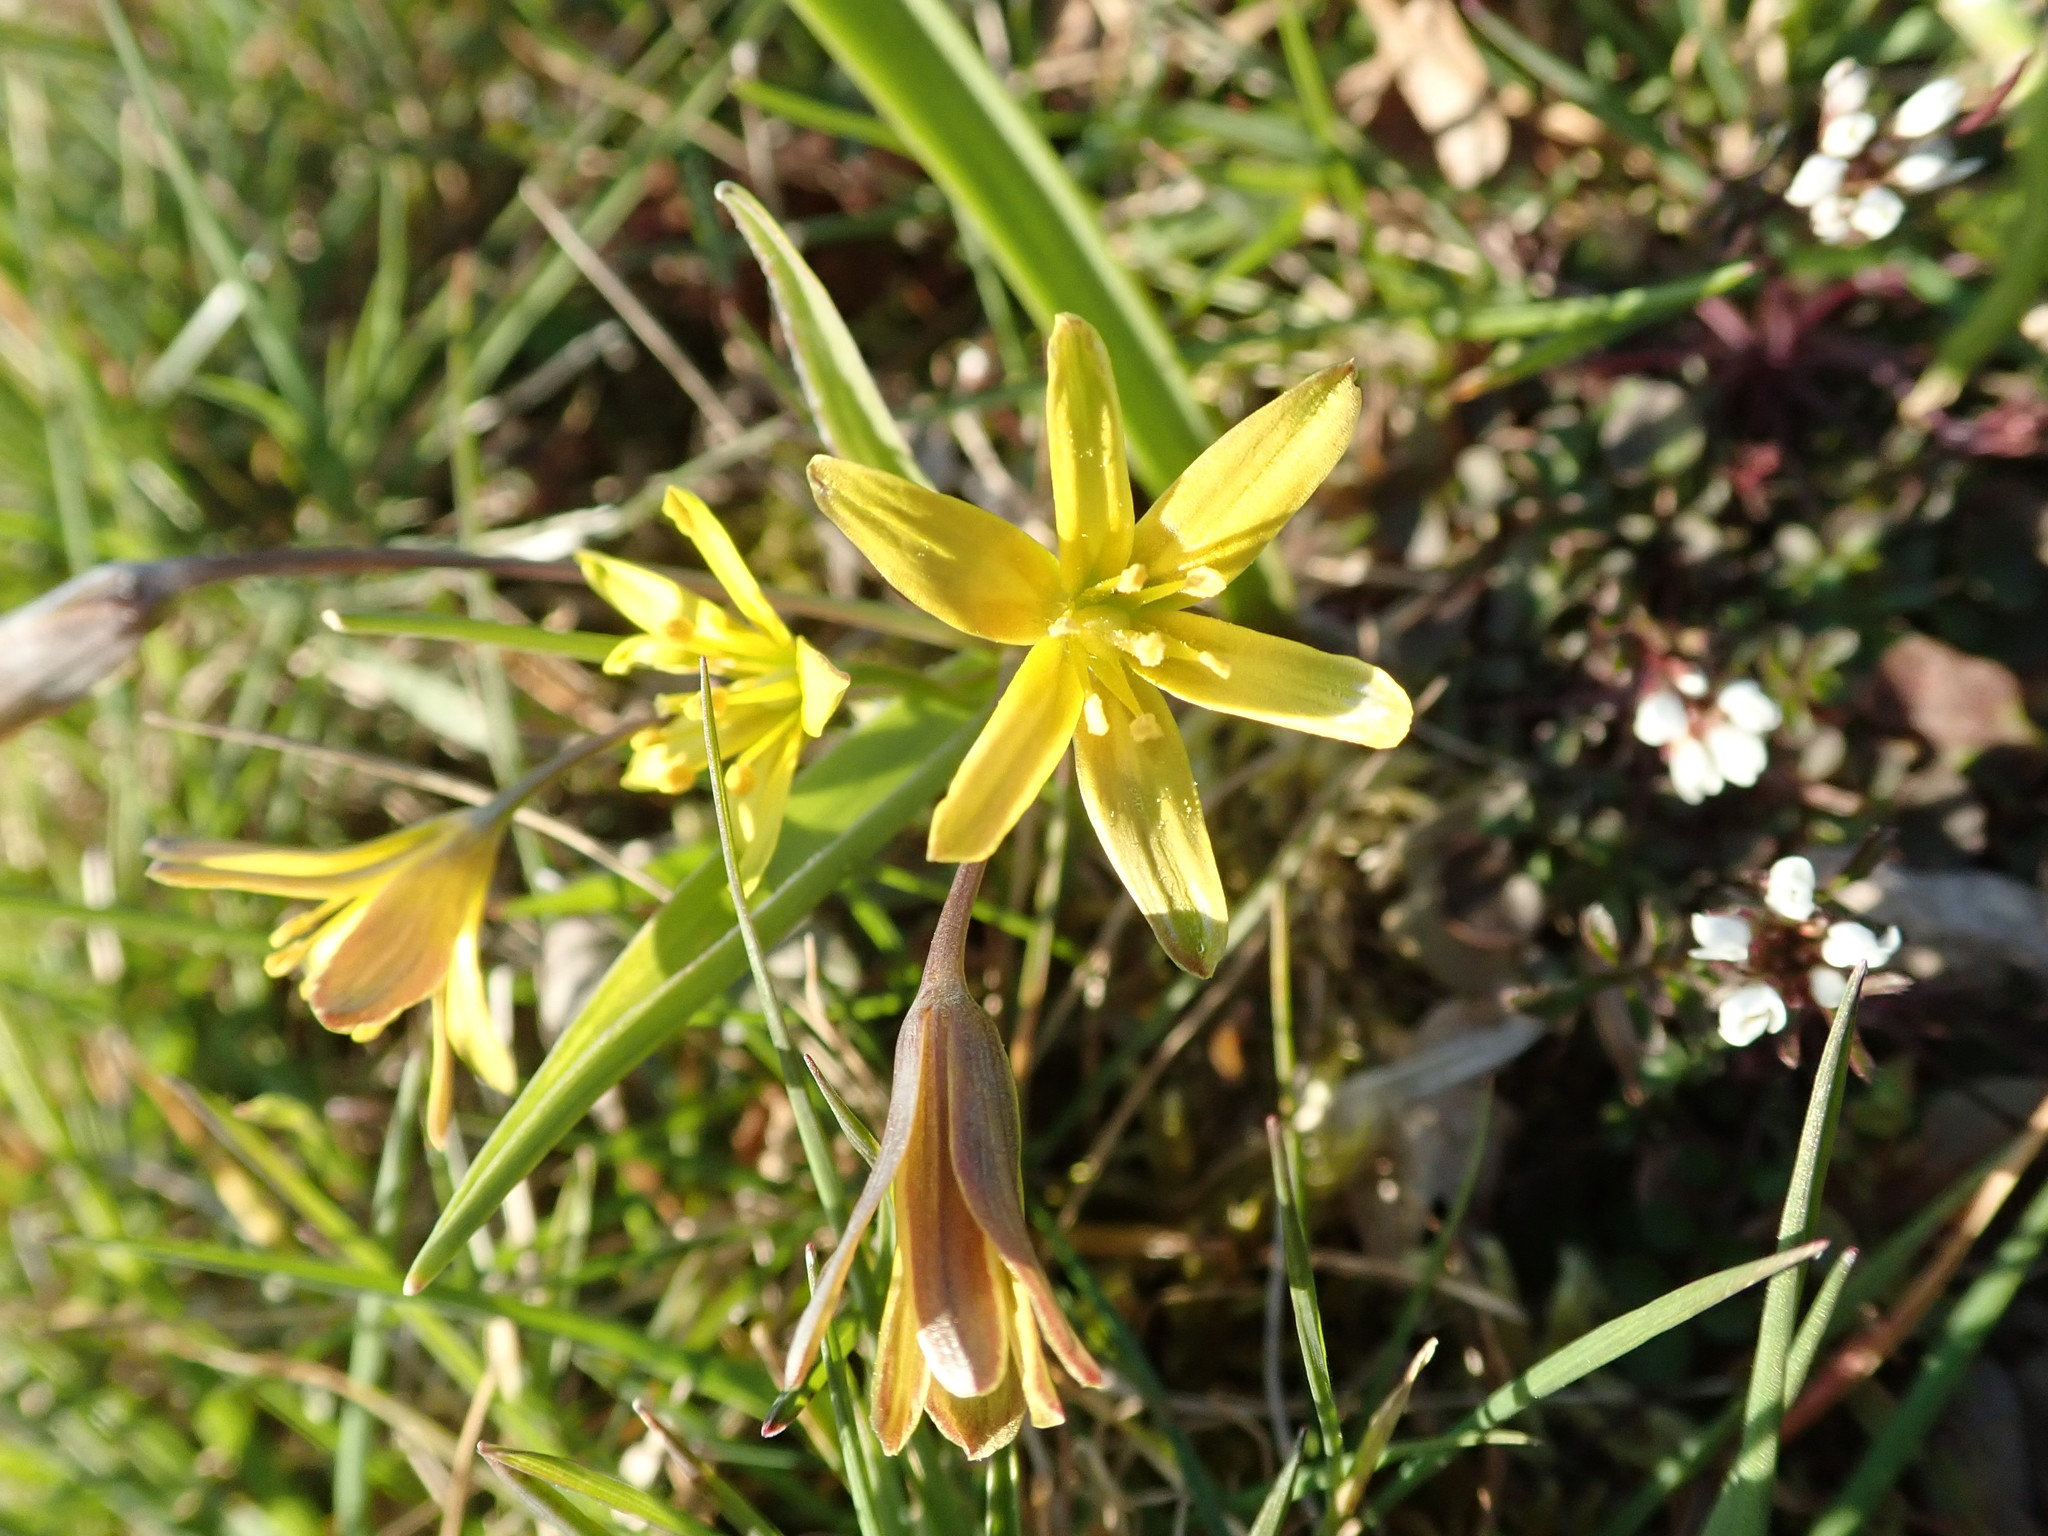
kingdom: Plantae
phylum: Tracheophyta
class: Liliopsida
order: Liliales
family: Liliaceae
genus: Gagea
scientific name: Gagea lutea
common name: Yellow star-of-bethlehem
